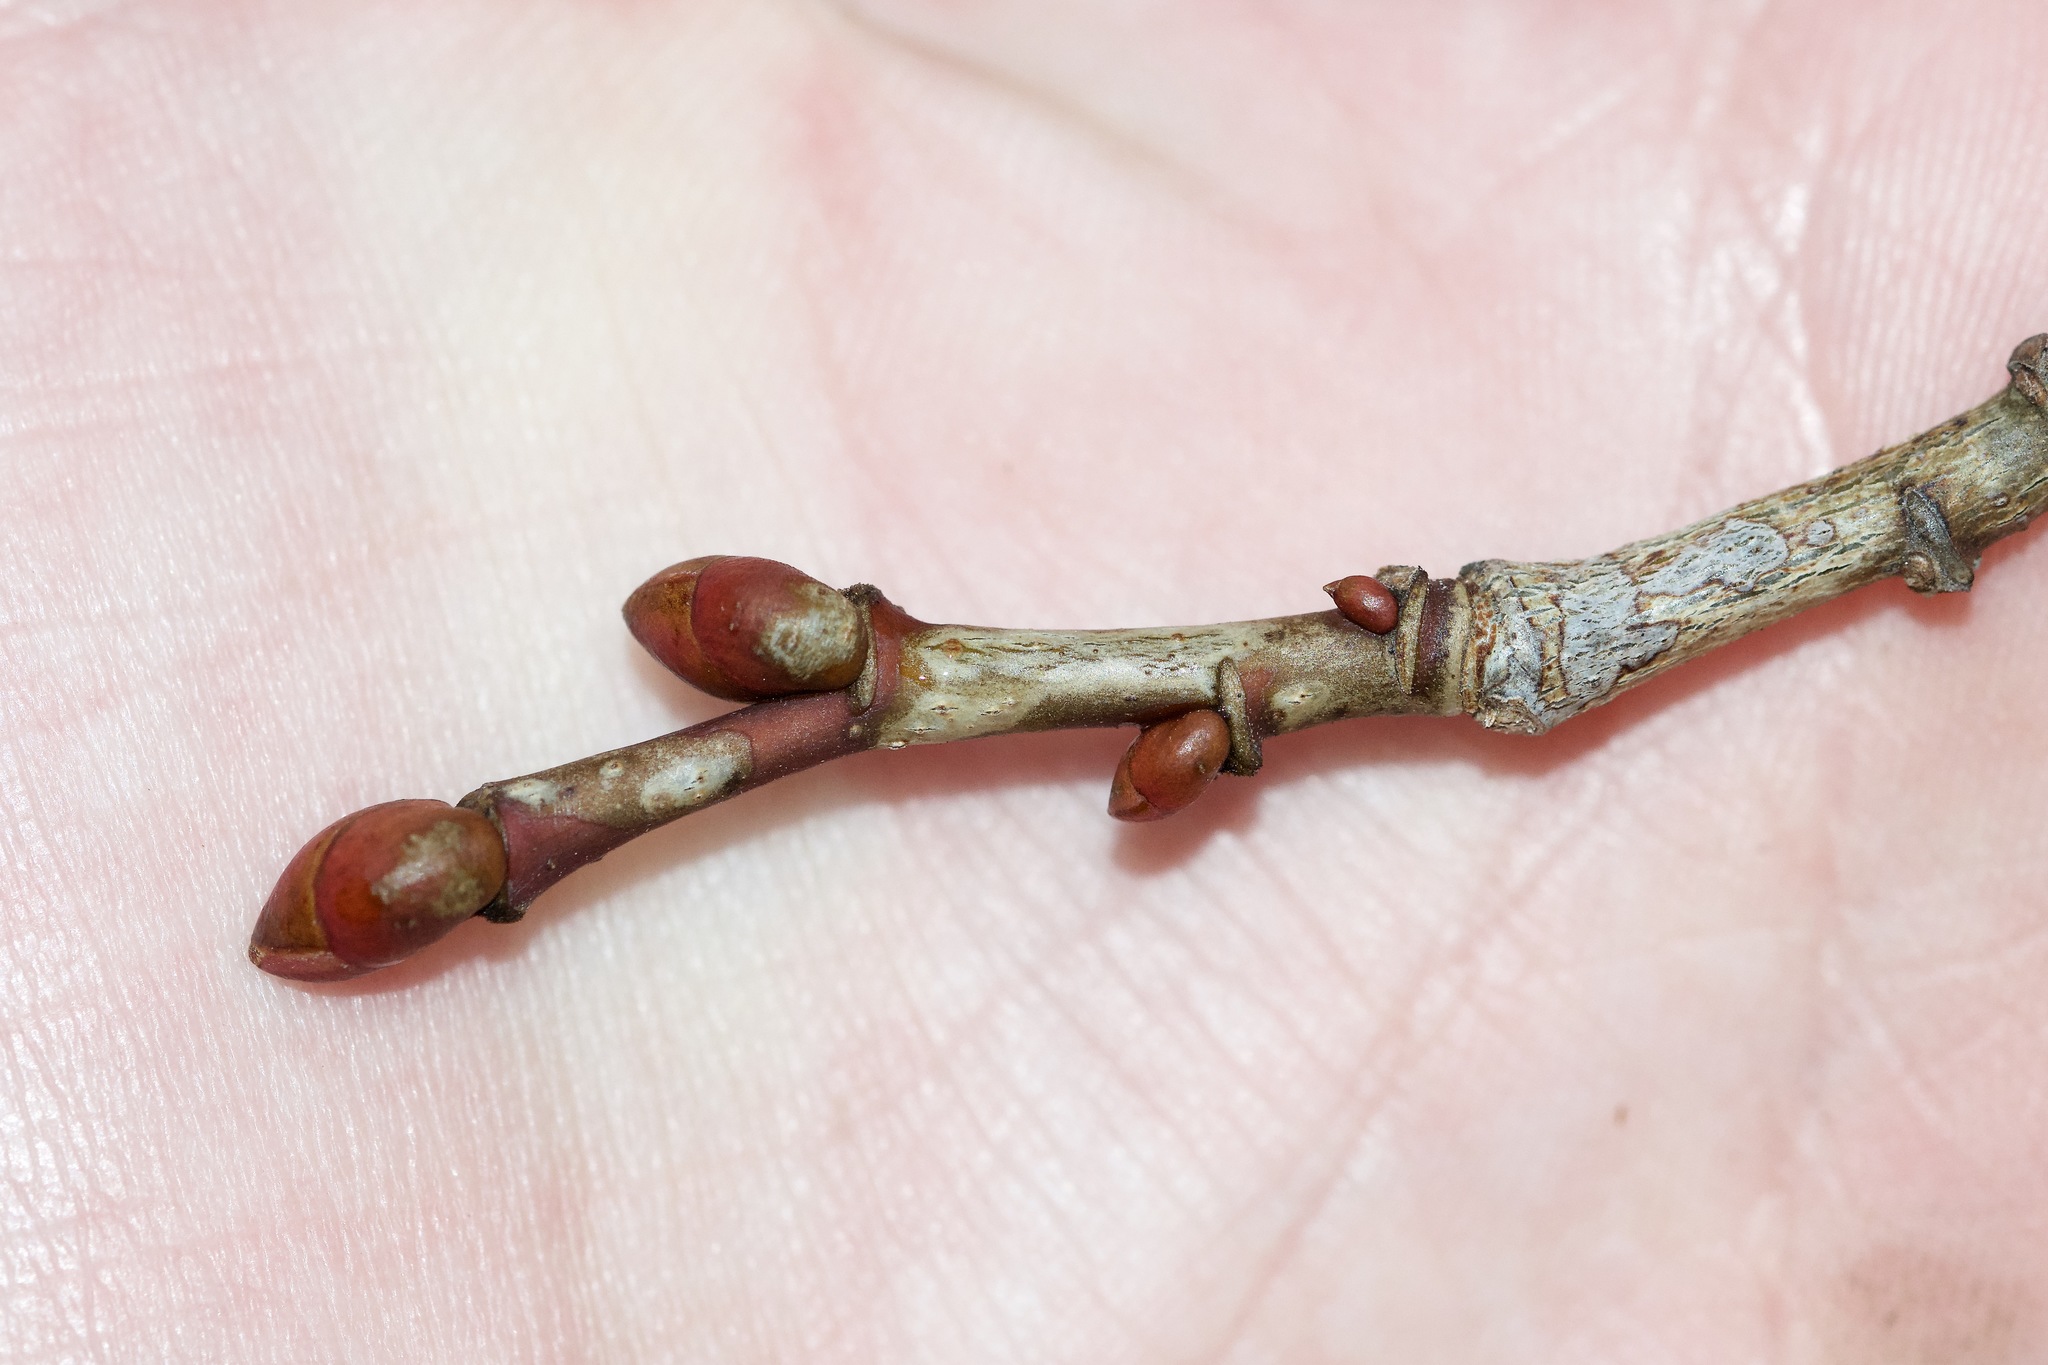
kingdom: Plantae
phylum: Tracheophyta
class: Magnoliopsida
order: Malvales
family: Malvaceae
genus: Tilia
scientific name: Tilia americana
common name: Basswood
